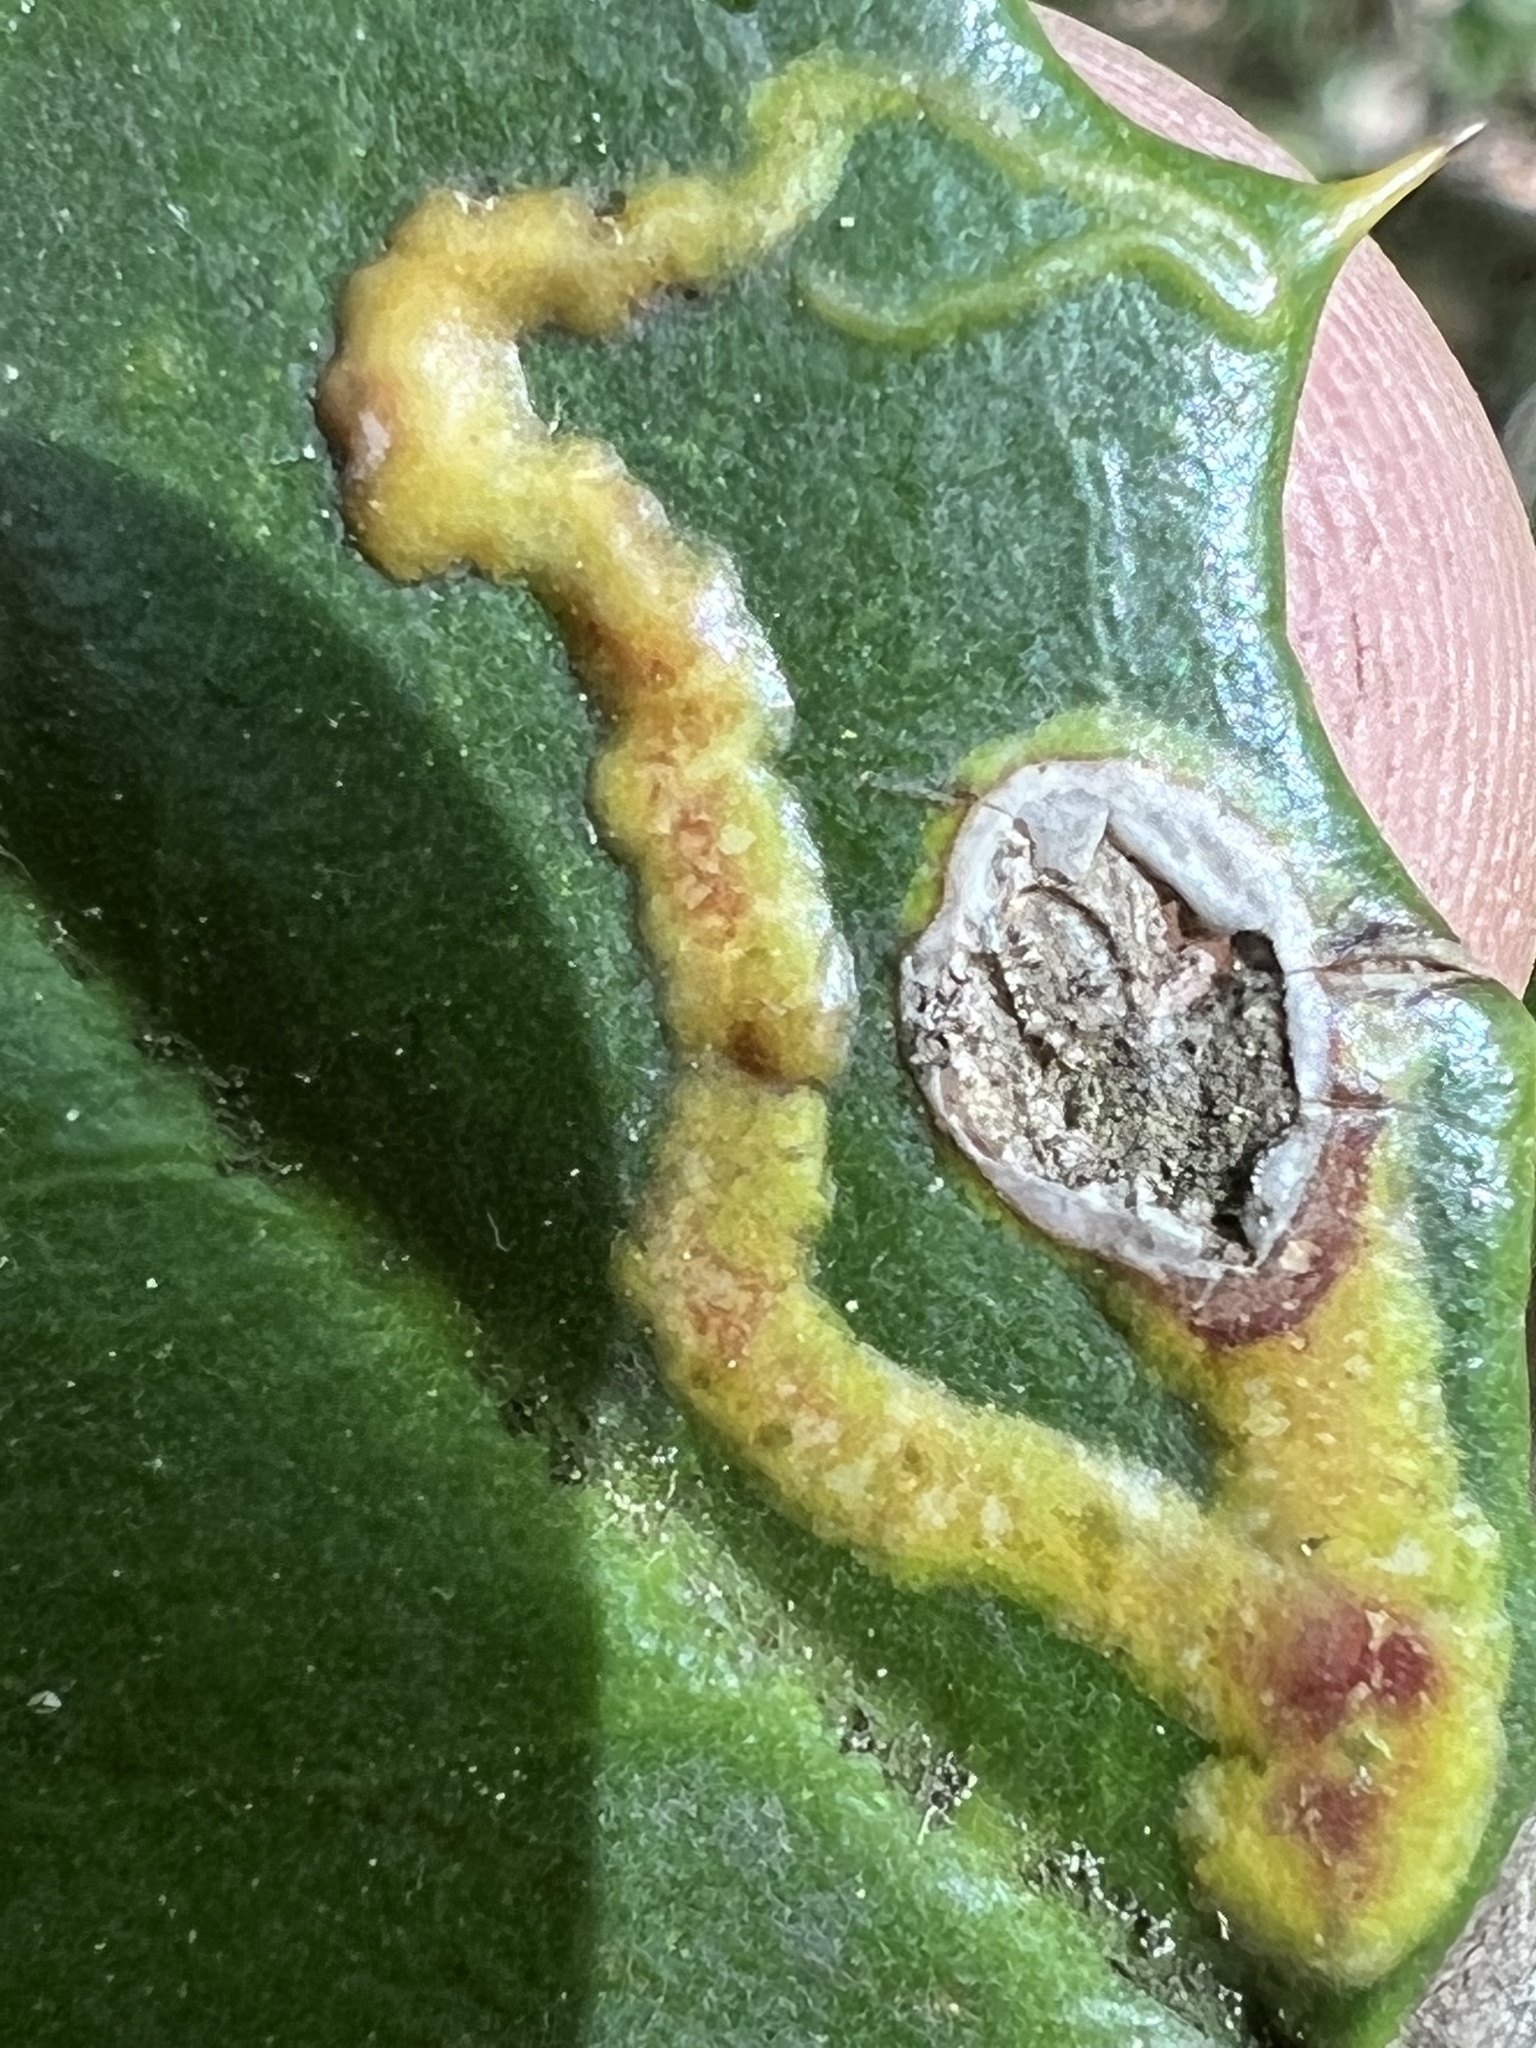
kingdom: Animalia
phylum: Arthropoda
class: Insecta
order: Diptera
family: Agromyzidae
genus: Phytomyza
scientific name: Phytomyza ilicicola
